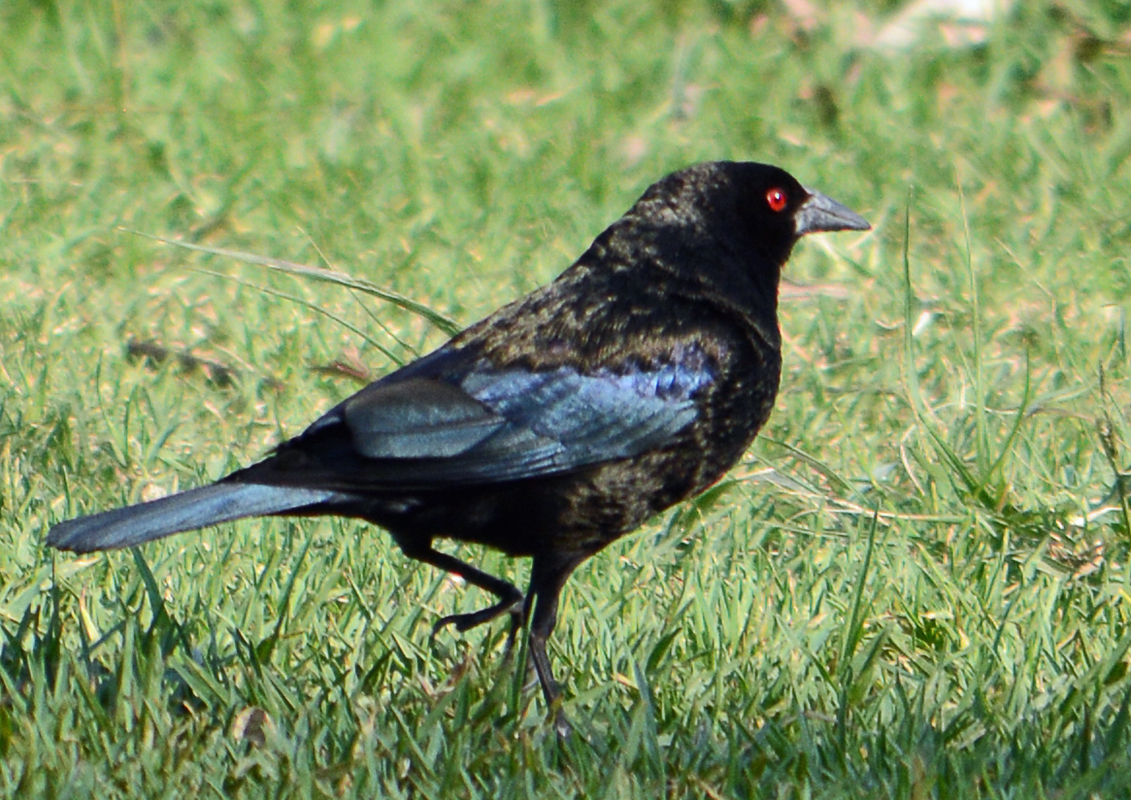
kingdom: Animalia
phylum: Chordata
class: Aves
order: Passeriformes
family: Icteridae
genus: Molothrus
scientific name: Molothrus aeneus
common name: Bronzed cowbird
